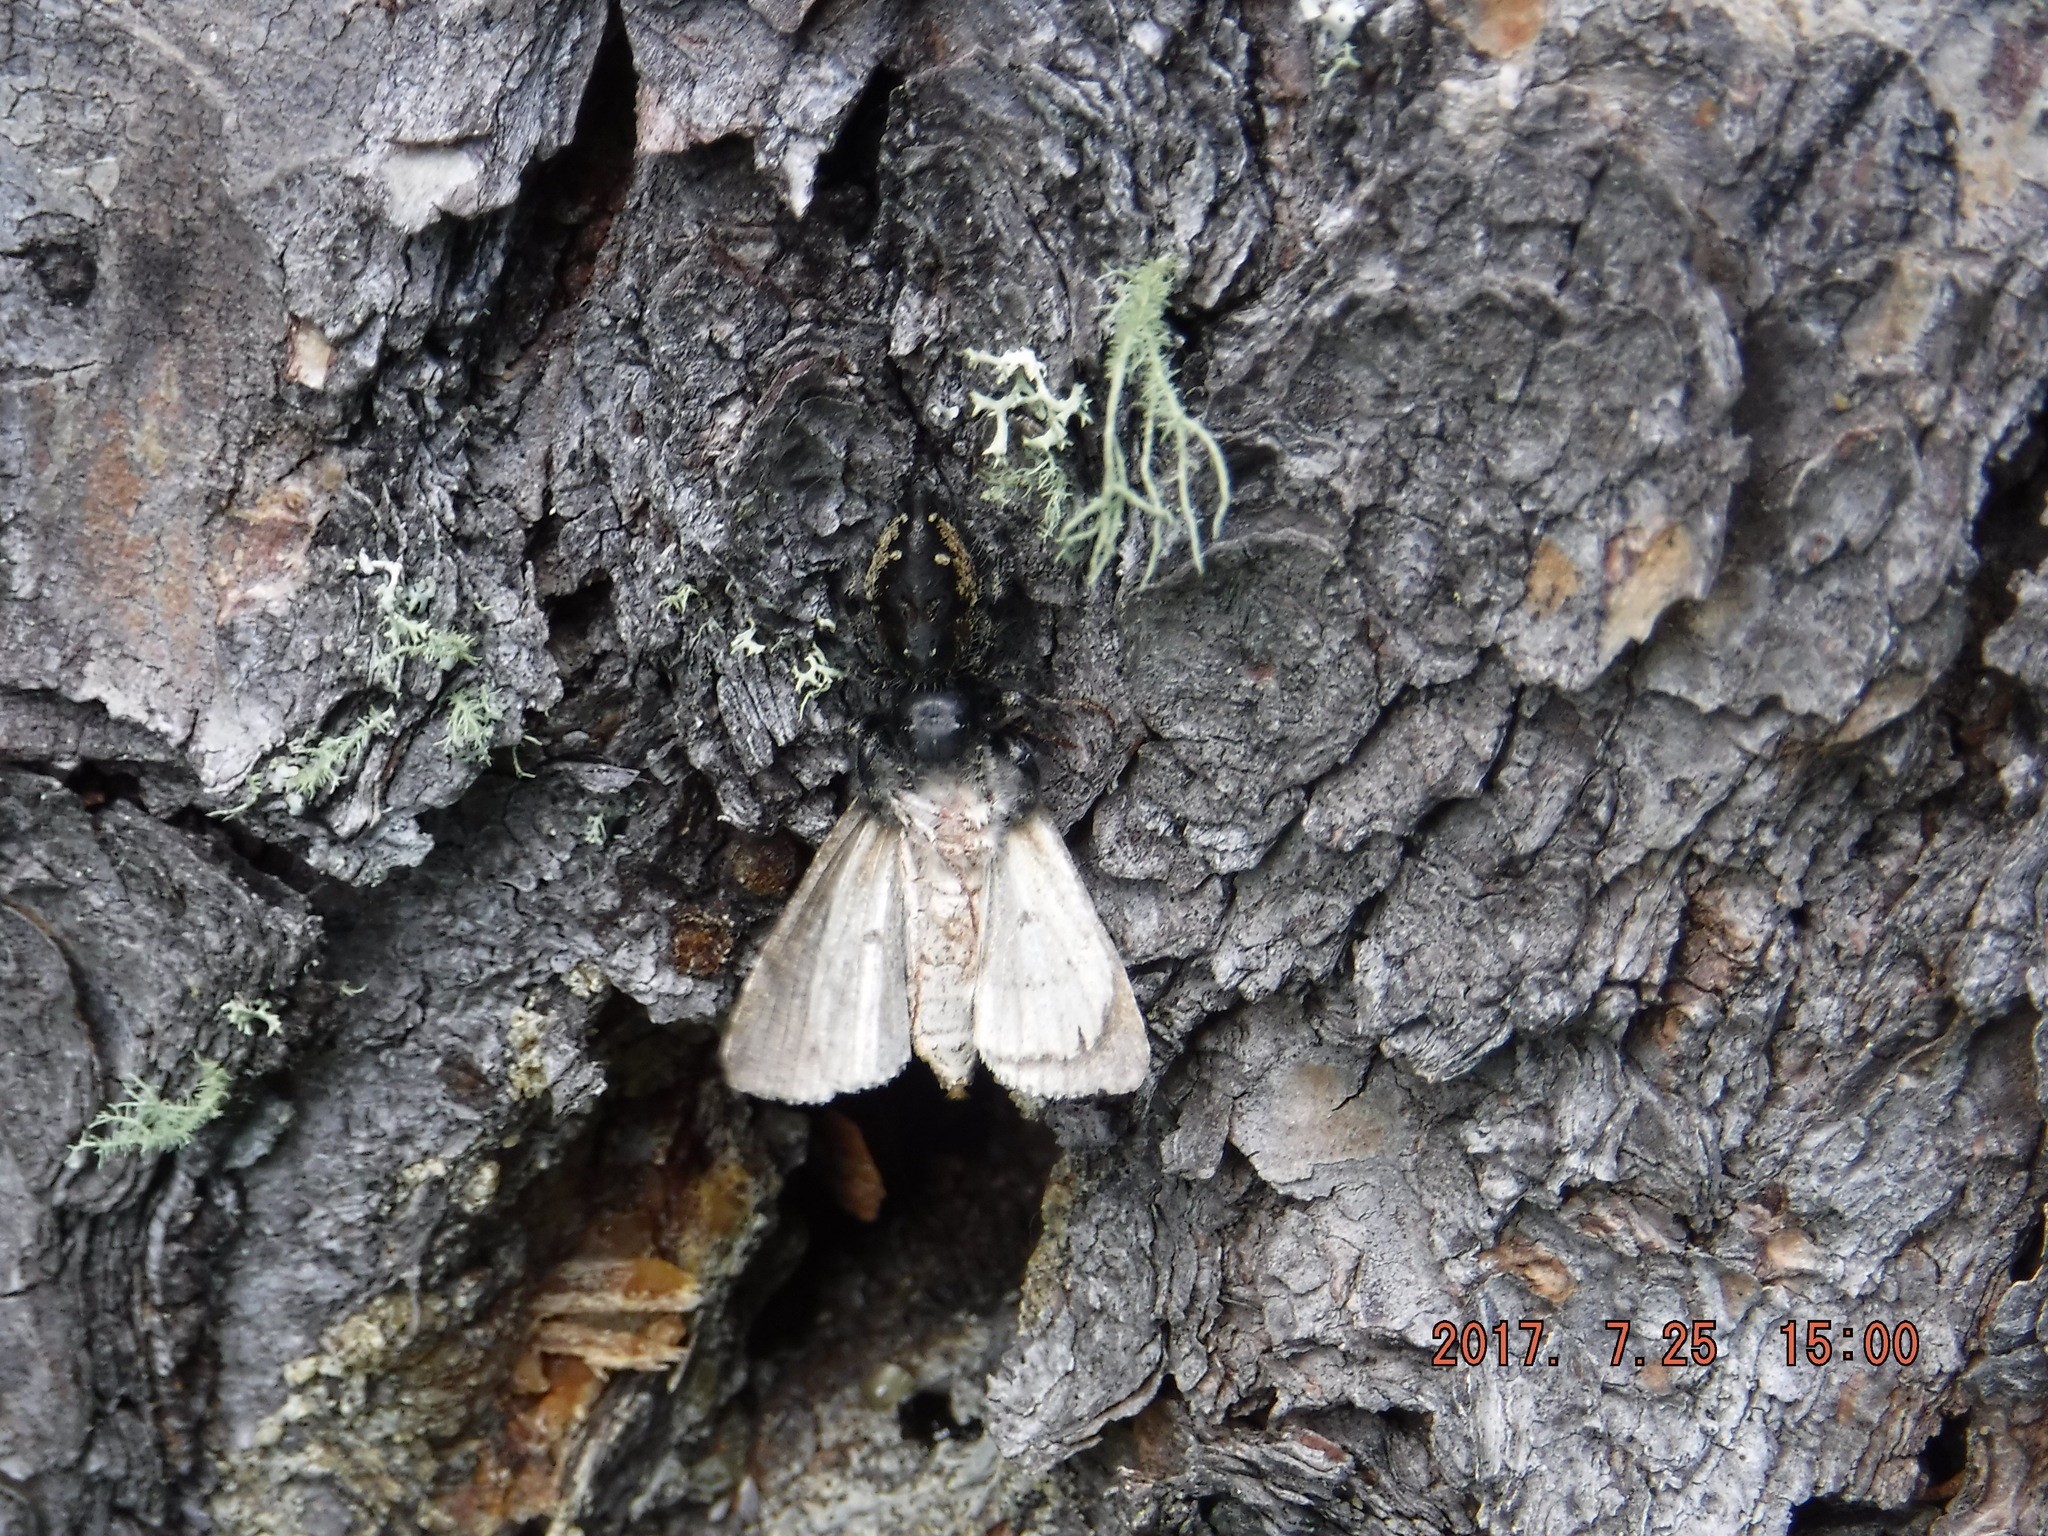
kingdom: Animalia
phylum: Arthropoda
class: Arachnida
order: Araneae
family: Salticidae
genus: Phidippus
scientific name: Phidippus borealis
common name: Boreal tufted jumping spider
